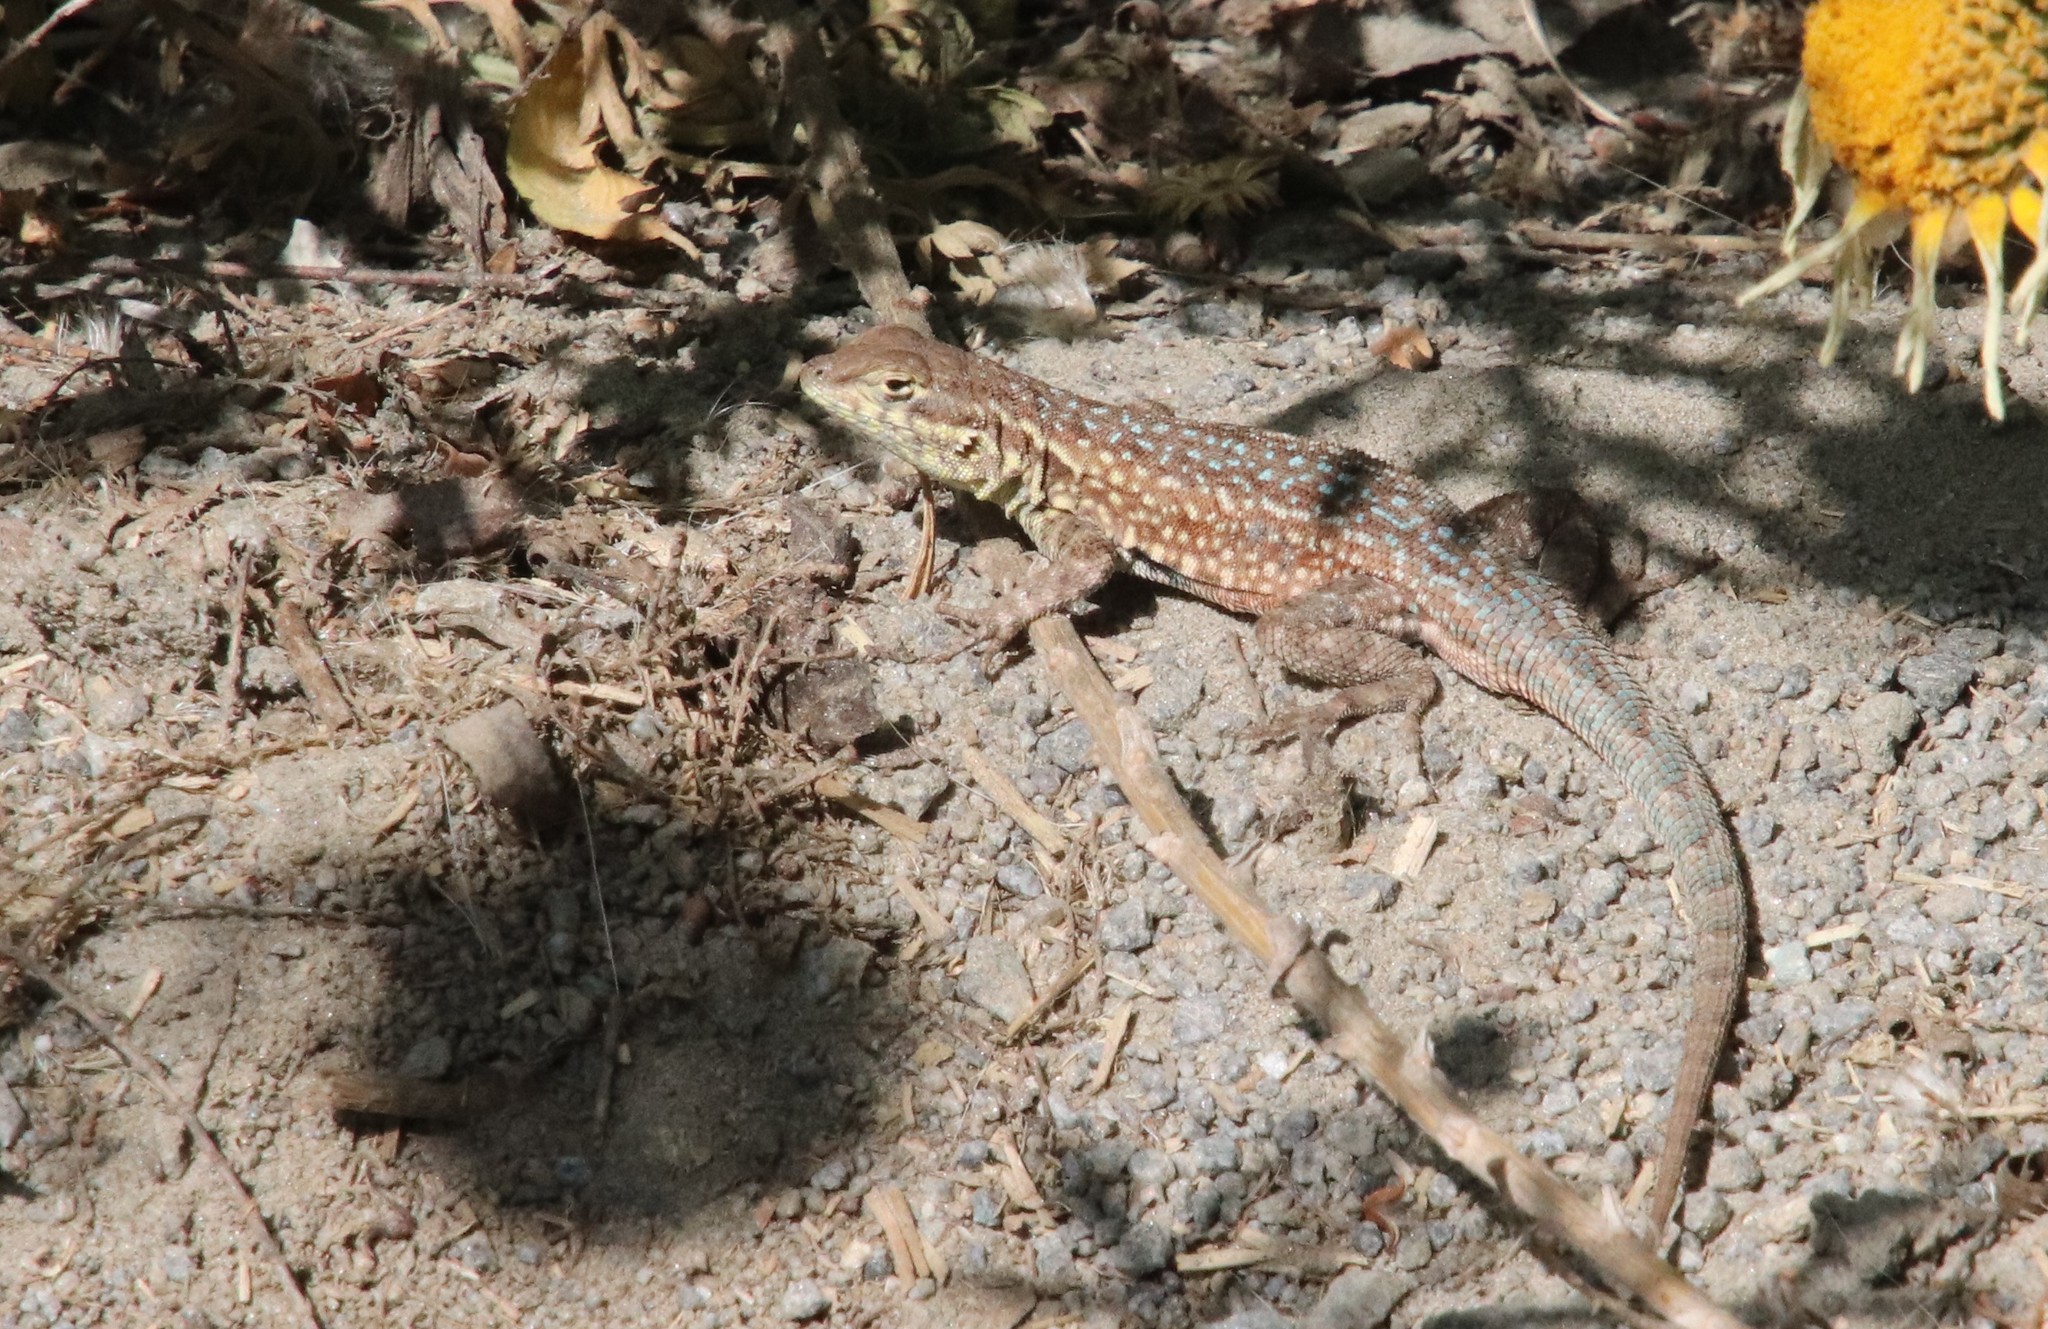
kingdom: Animalia
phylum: Chordata
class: Squamata
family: Phrynosomatidae
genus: Uta
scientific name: Uta stansburiana
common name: Side-blotched lizard
